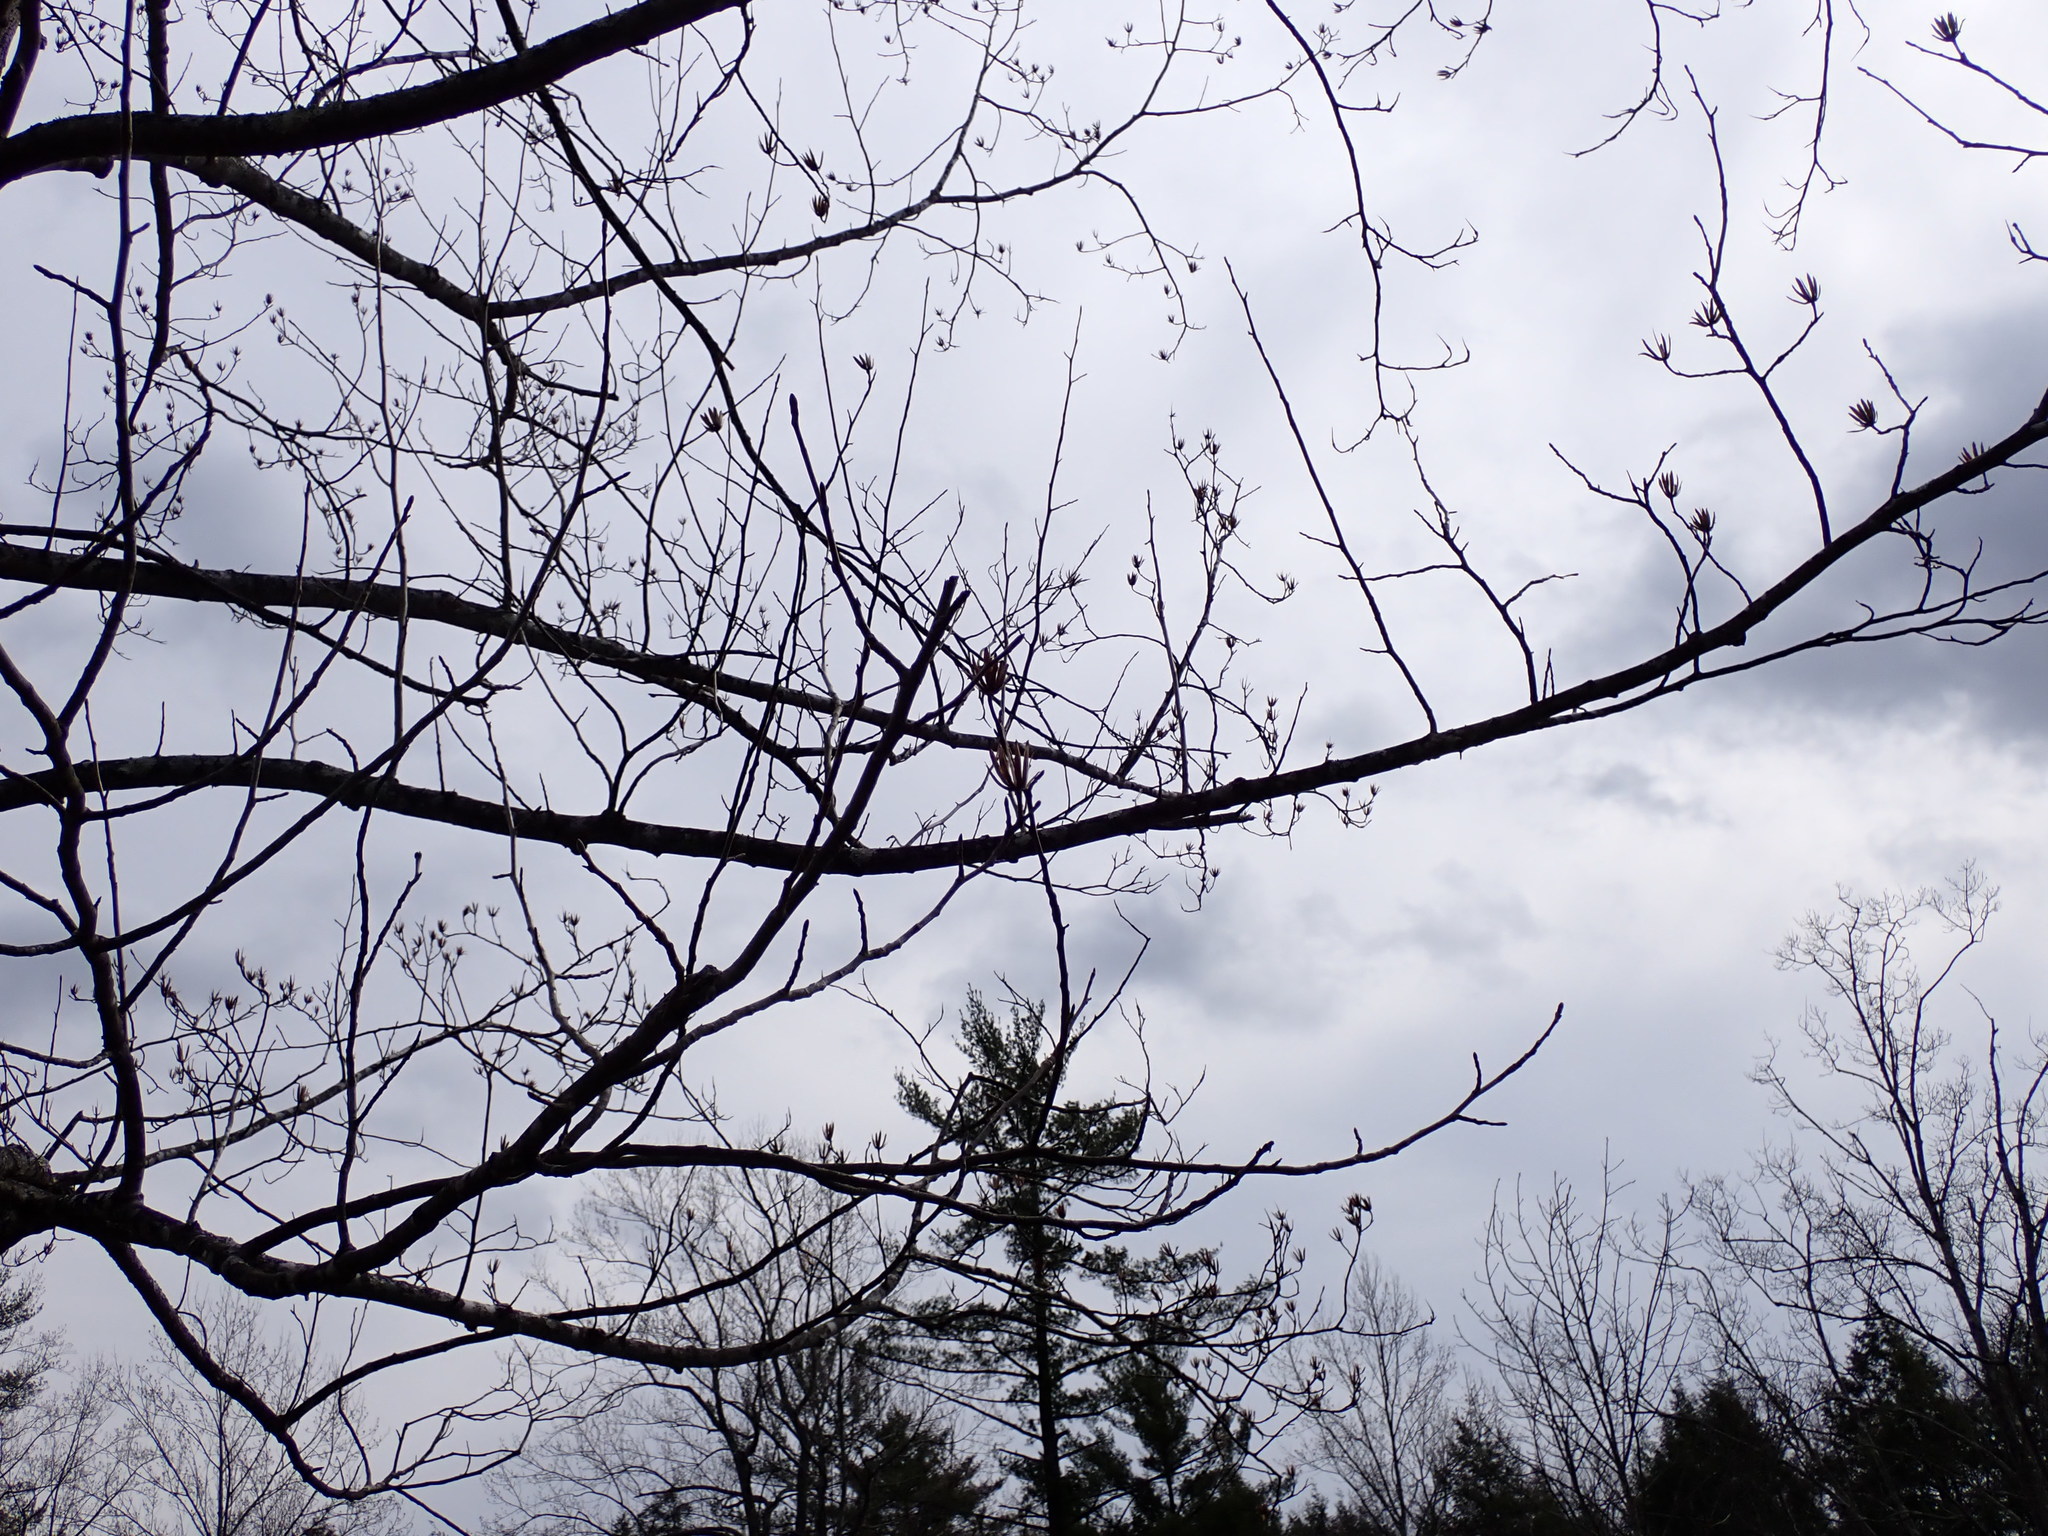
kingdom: Plantae
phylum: Tracheophyta
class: Magnoliopsida
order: Magnoliales
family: Magnoliaceae
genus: Liriodendron
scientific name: Liriodendron tulipifera
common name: Tulip tree
